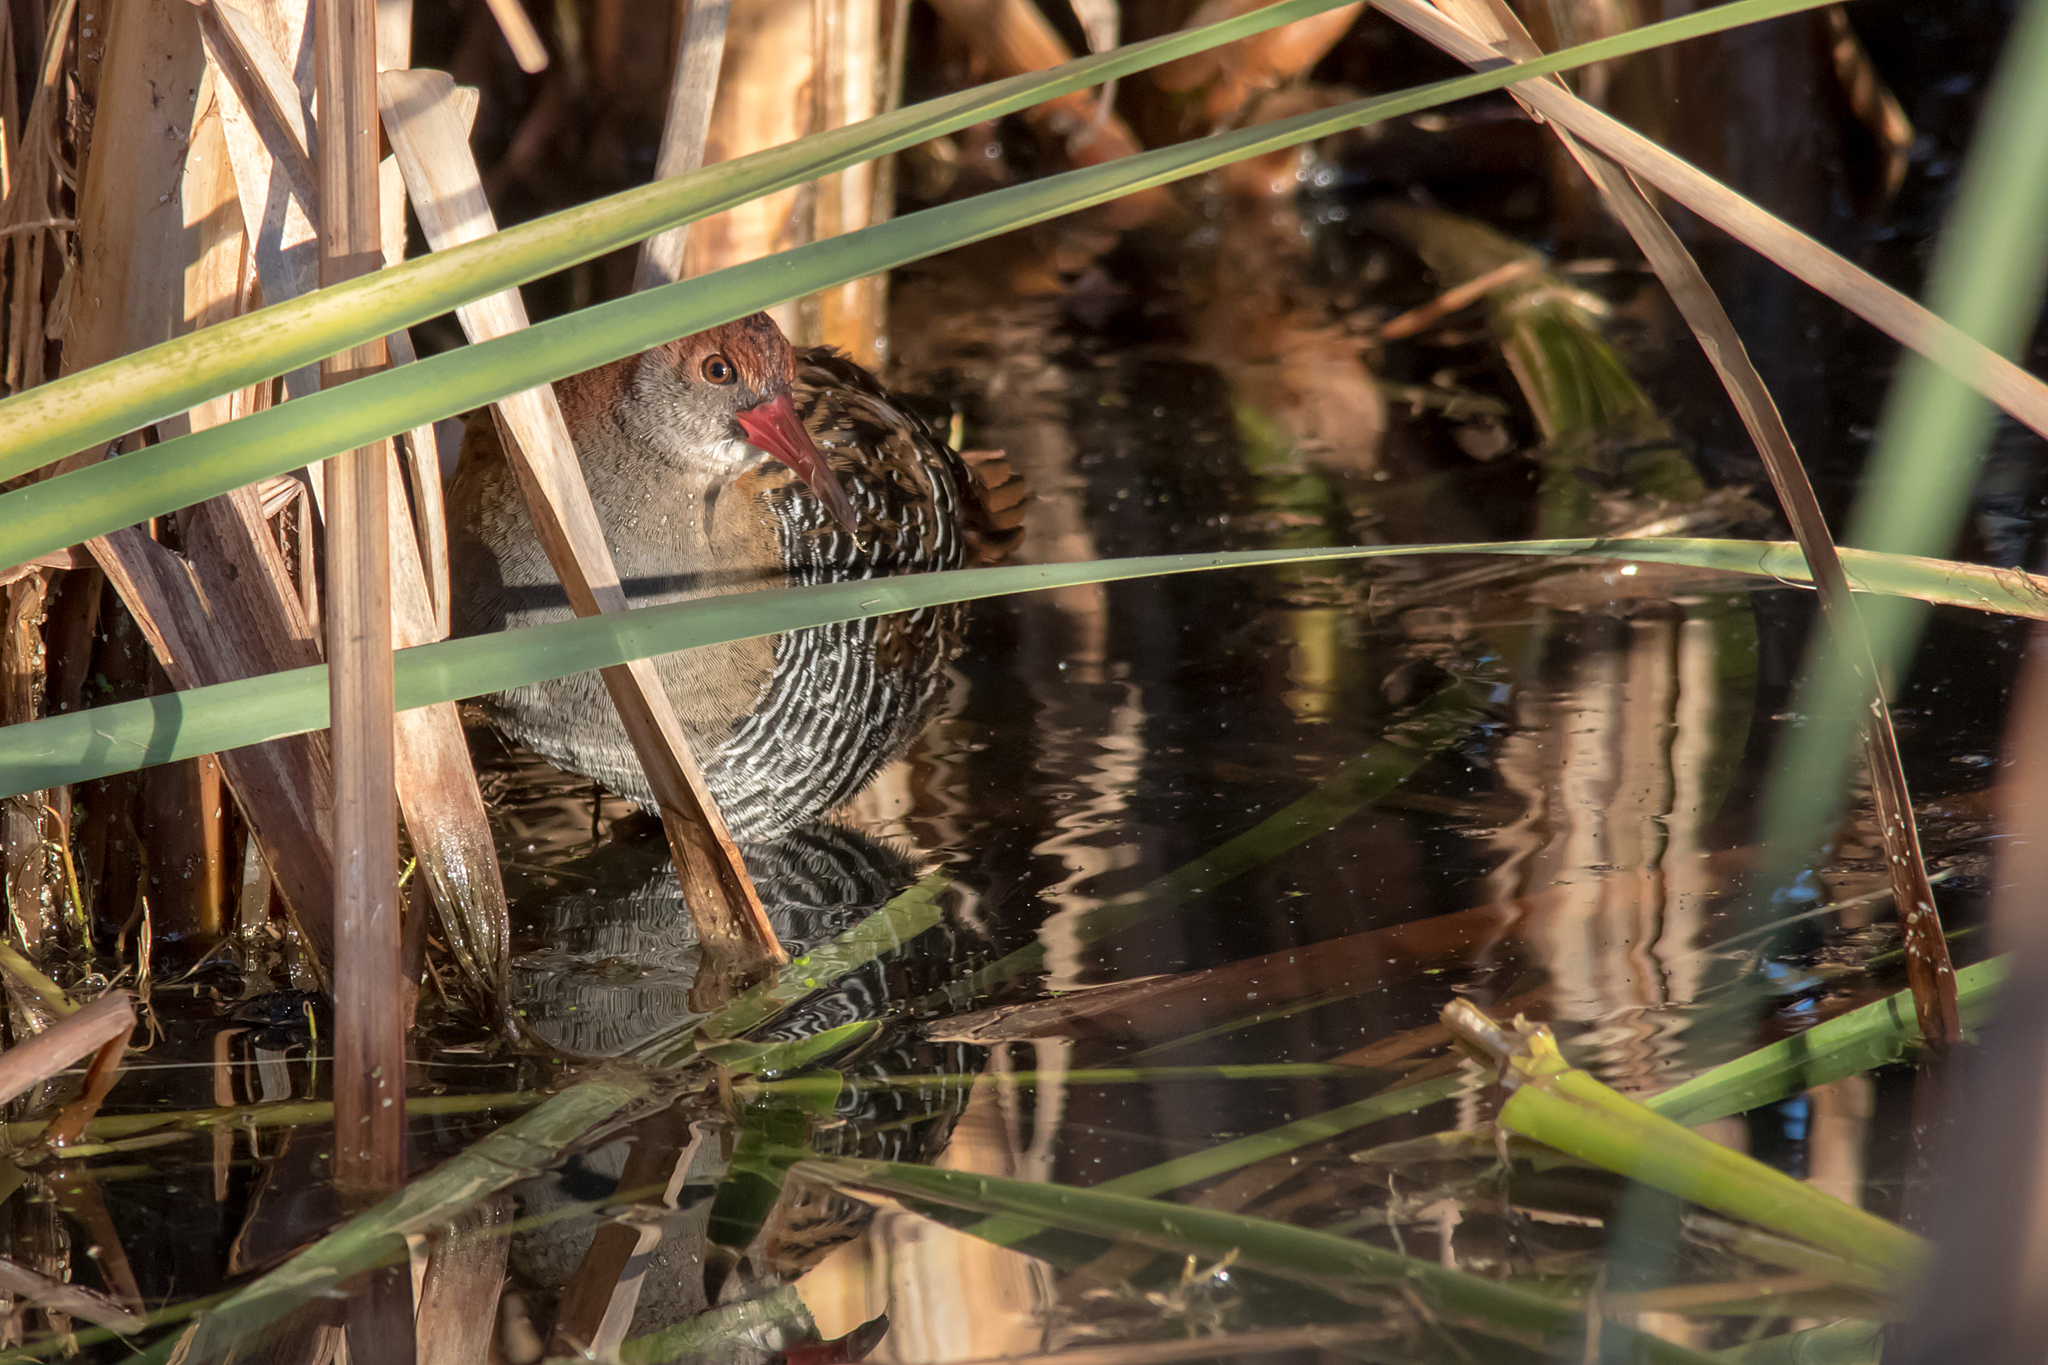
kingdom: Animalia
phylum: Chordata
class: Aves
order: Gruiformes
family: Rallidae
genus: Lewinia
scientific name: Lewinia pectoralis
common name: Lewin's rail
